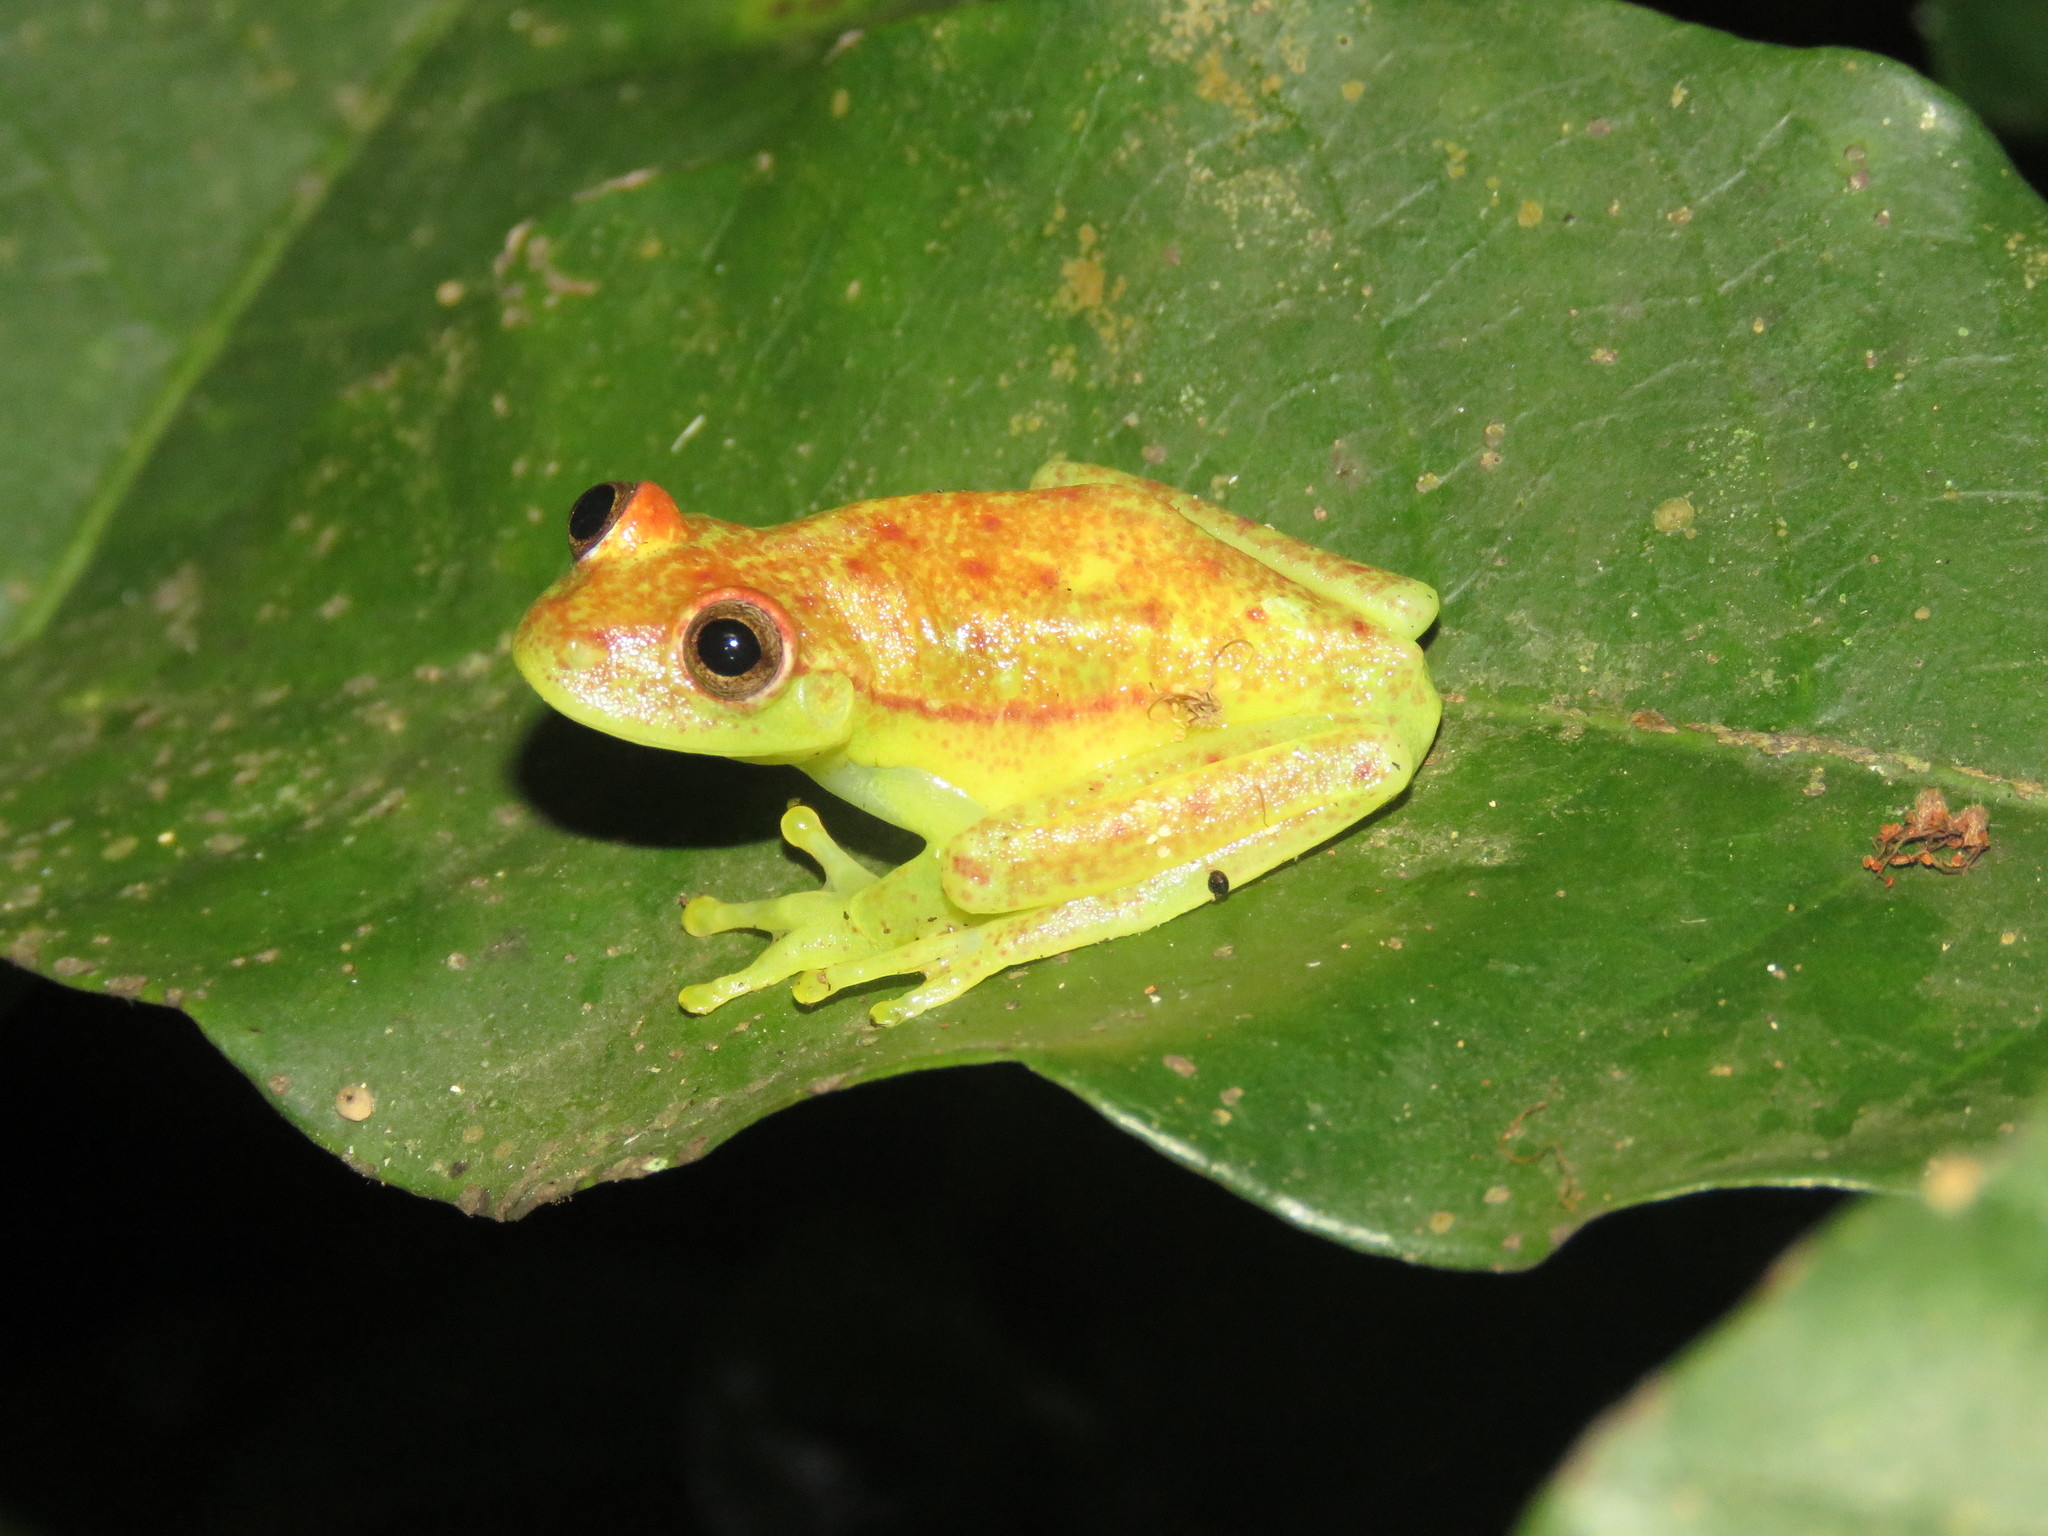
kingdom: Animalia
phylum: Chordata
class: Amphibia
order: Anura
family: Hylidae
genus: Boana
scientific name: Boana punctata
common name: Polka-dot treefrog
